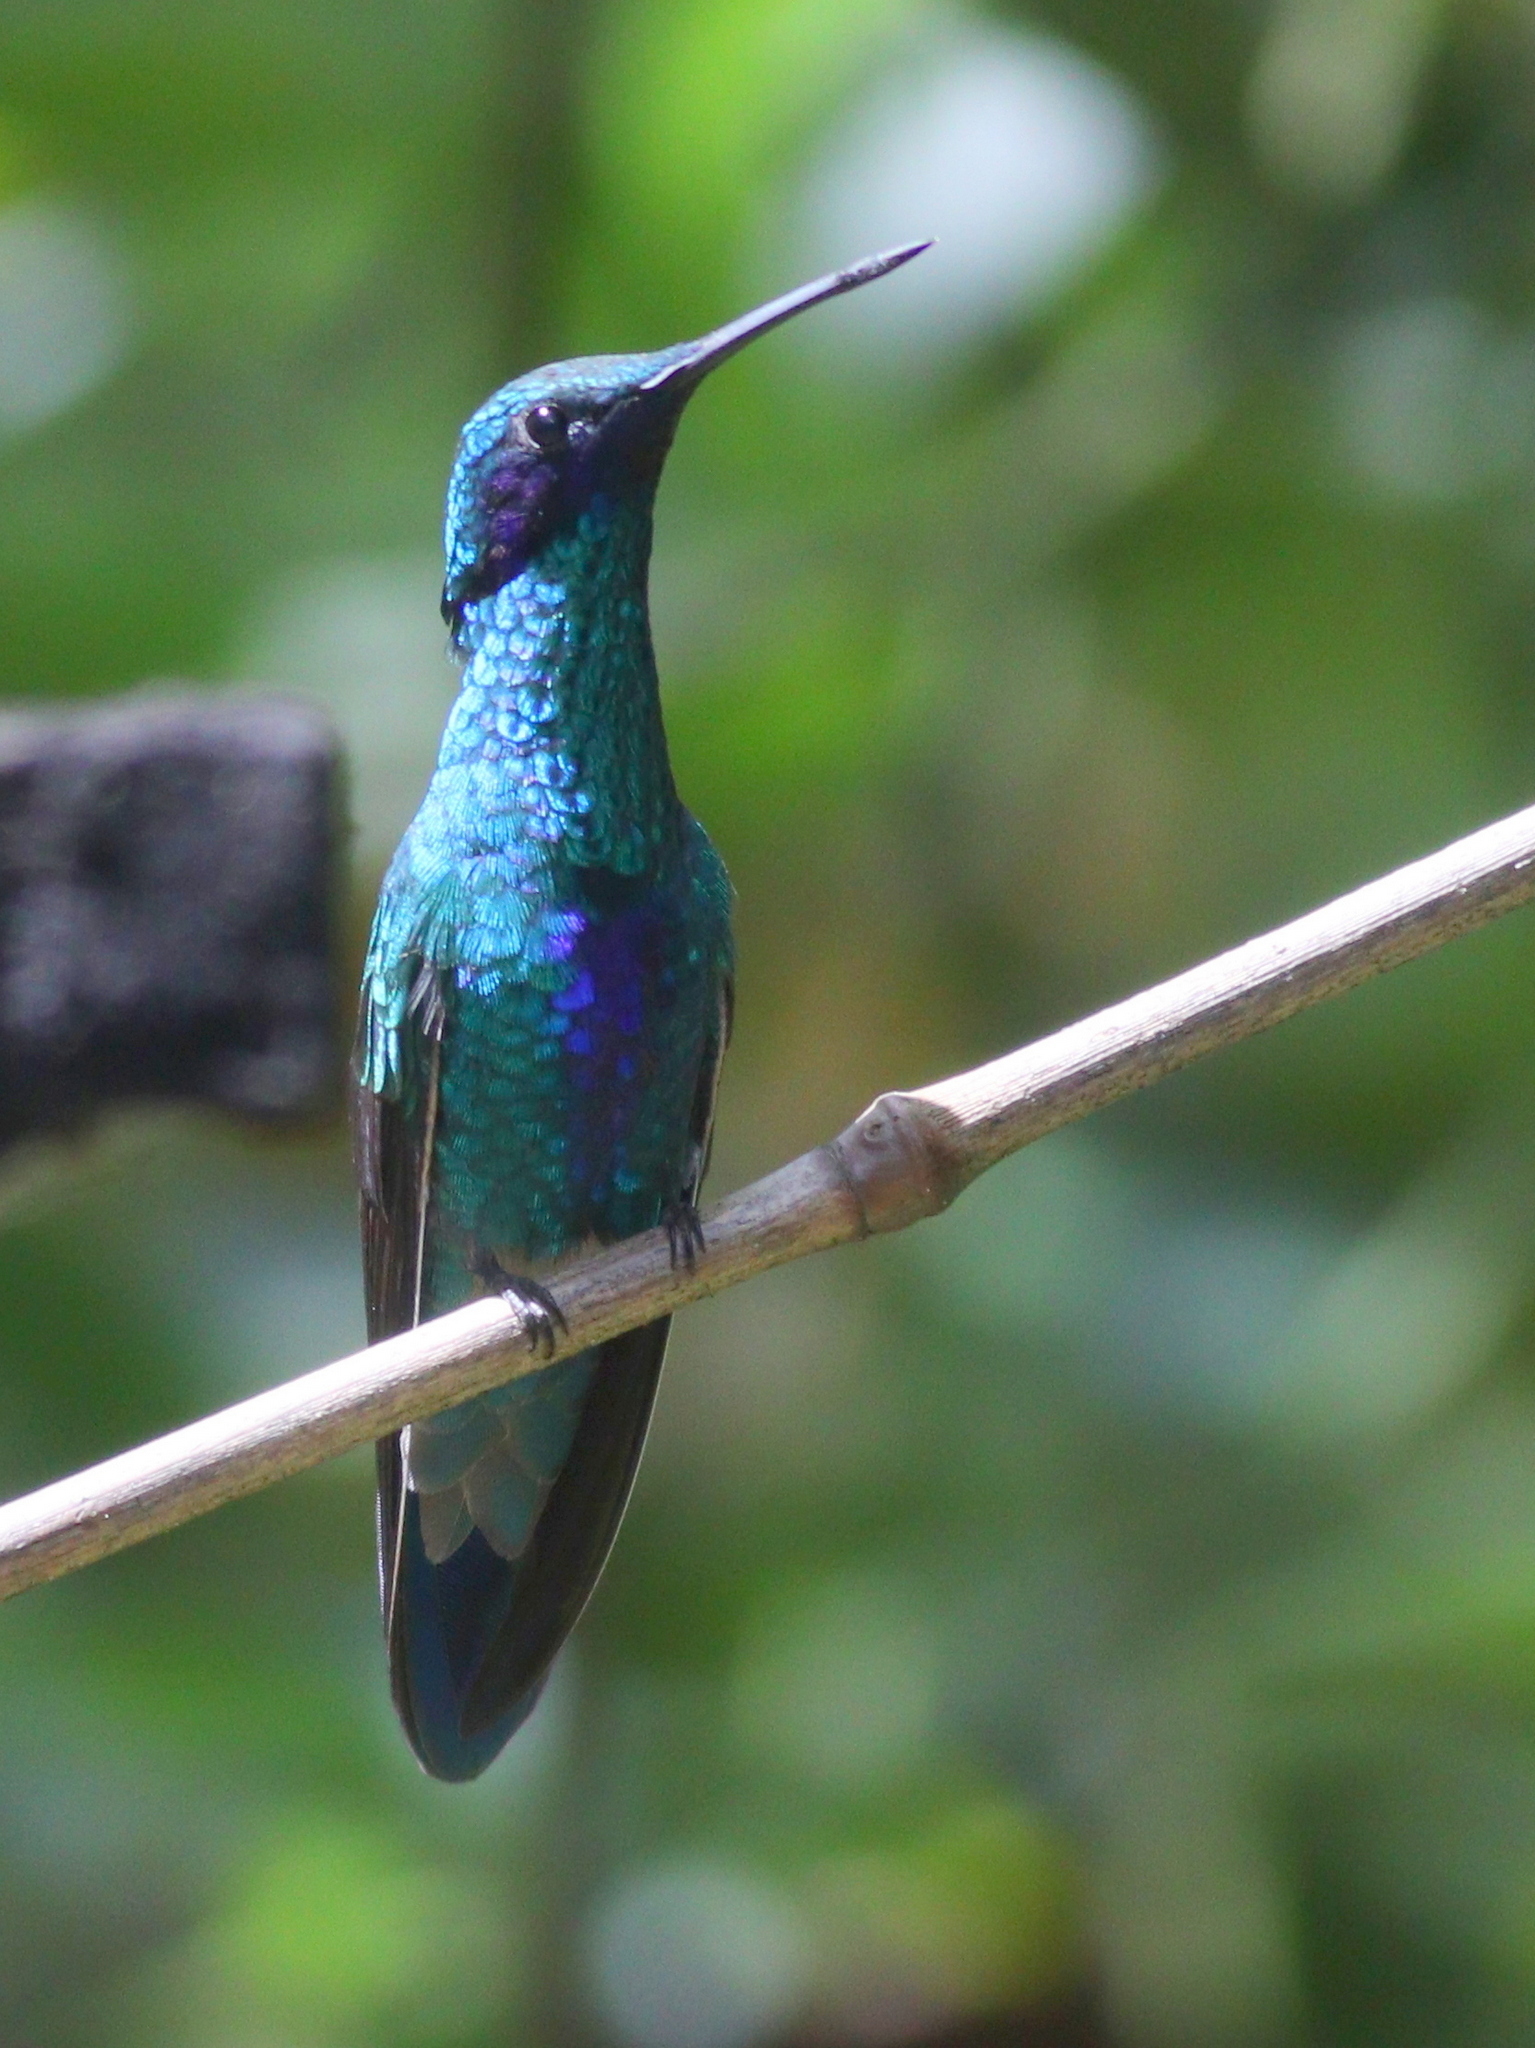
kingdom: Animalia
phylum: Chordata
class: Aves
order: Apodiformes
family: Trochilidae
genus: Colibri
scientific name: Colibri coruscans
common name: Sparkling violetear
